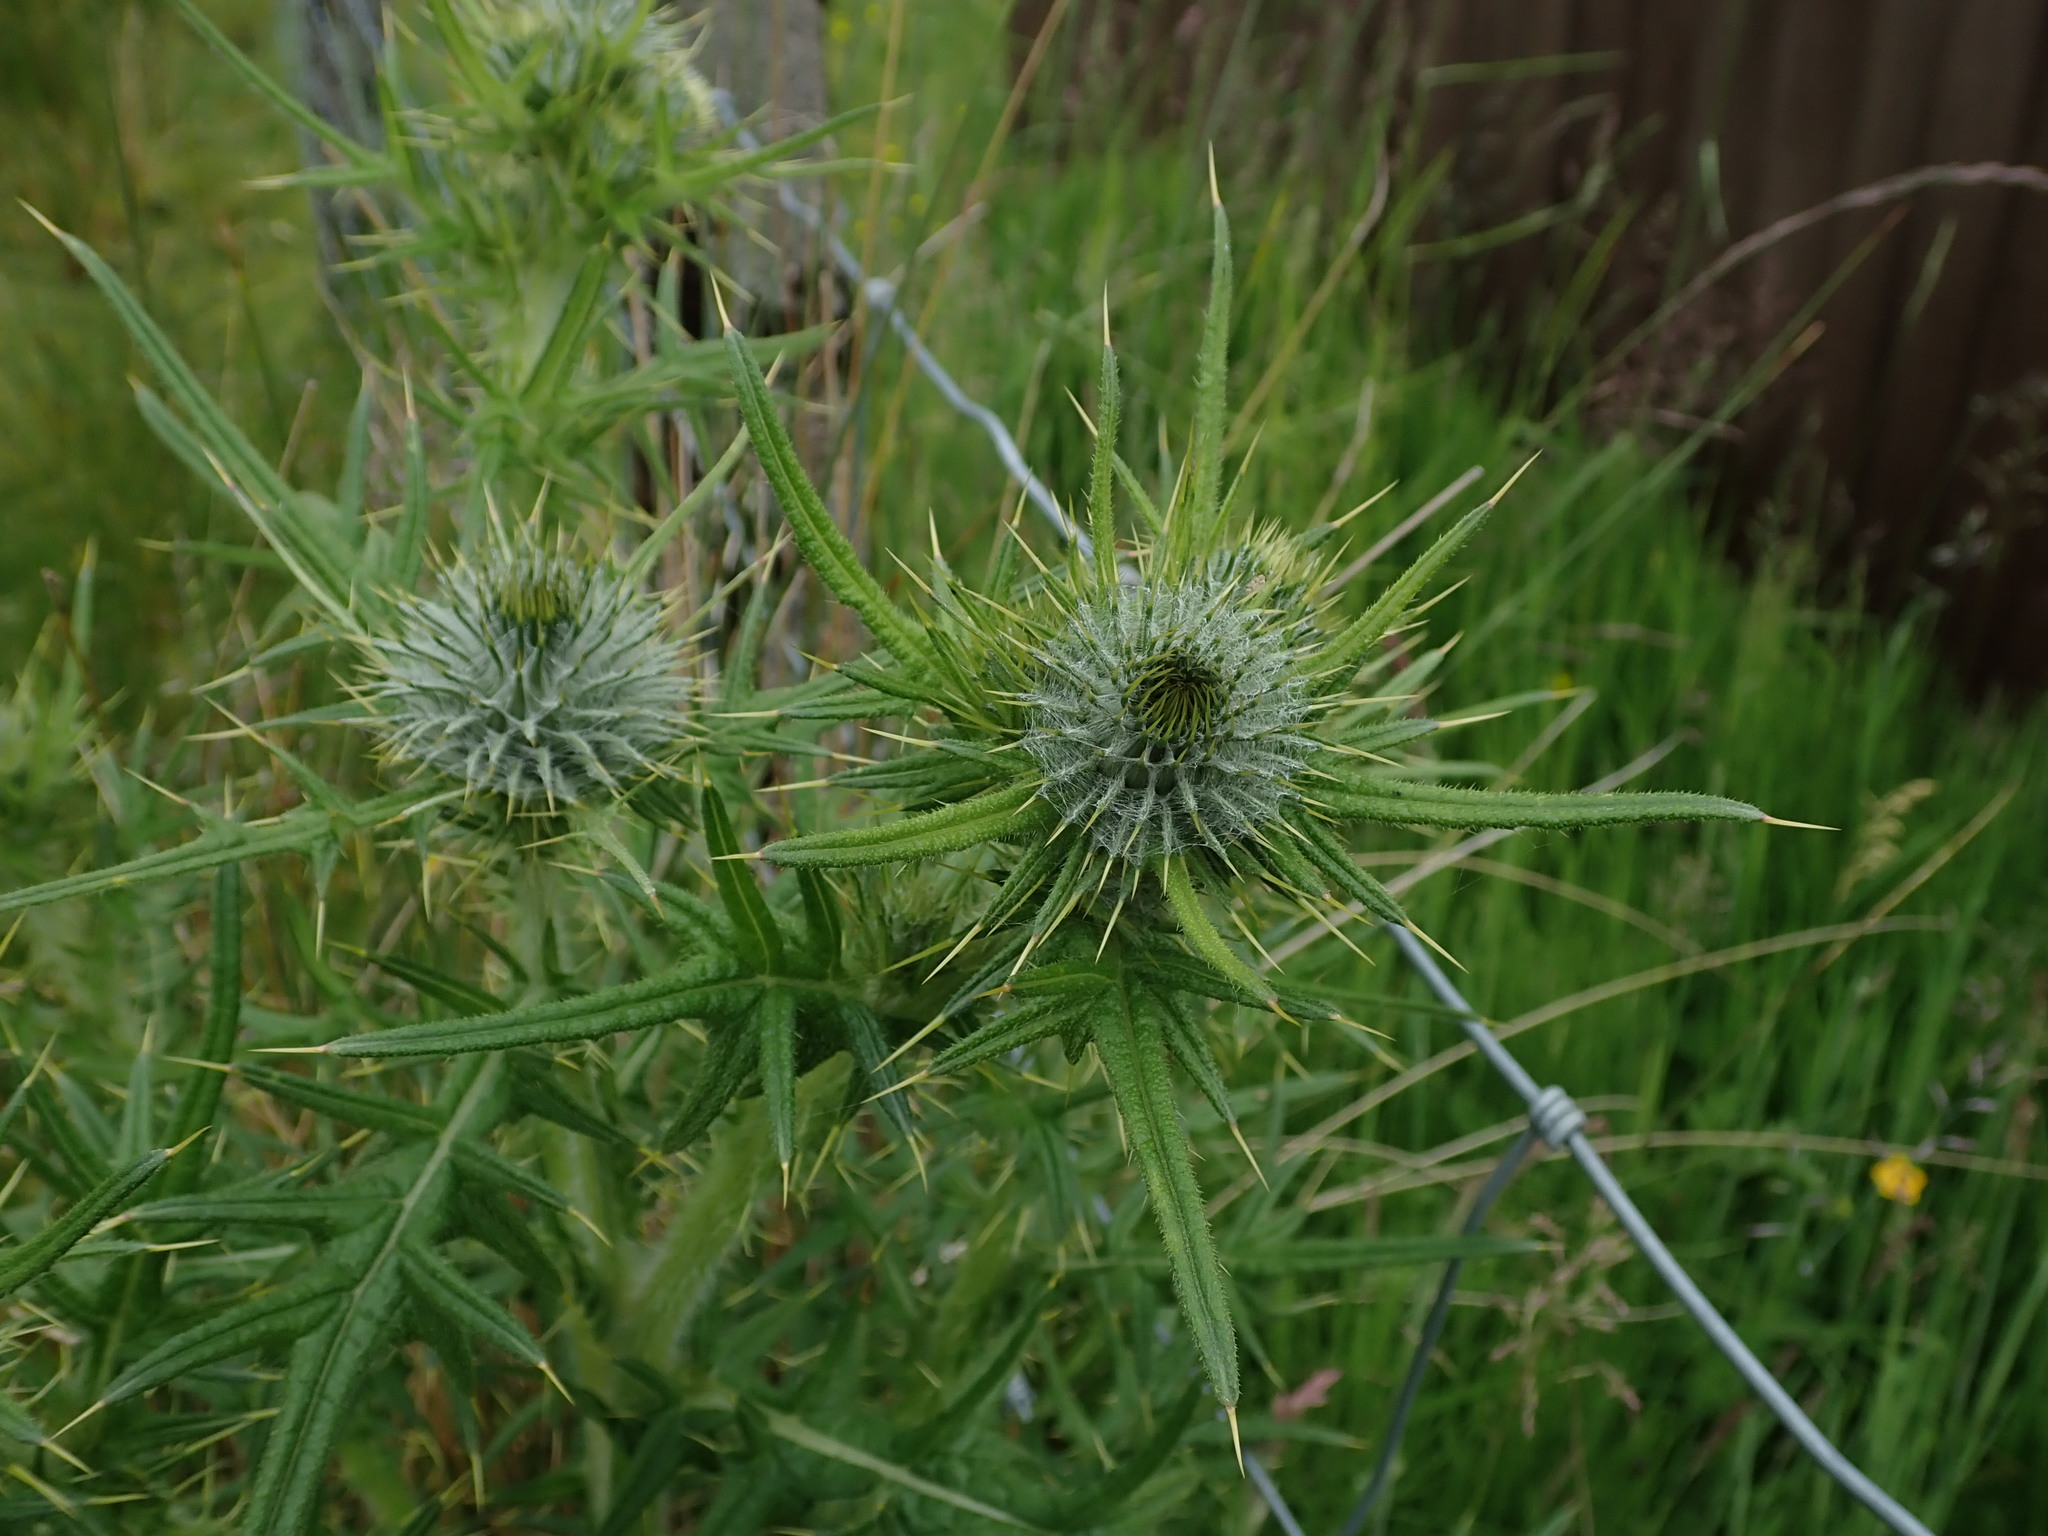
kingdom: Plantae
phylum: Tracheophyta
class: Magnoliopsida
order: Asterales
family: Asteraceae
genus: Cirsium
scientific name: Cirsium vulgare
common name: Bull thistle
